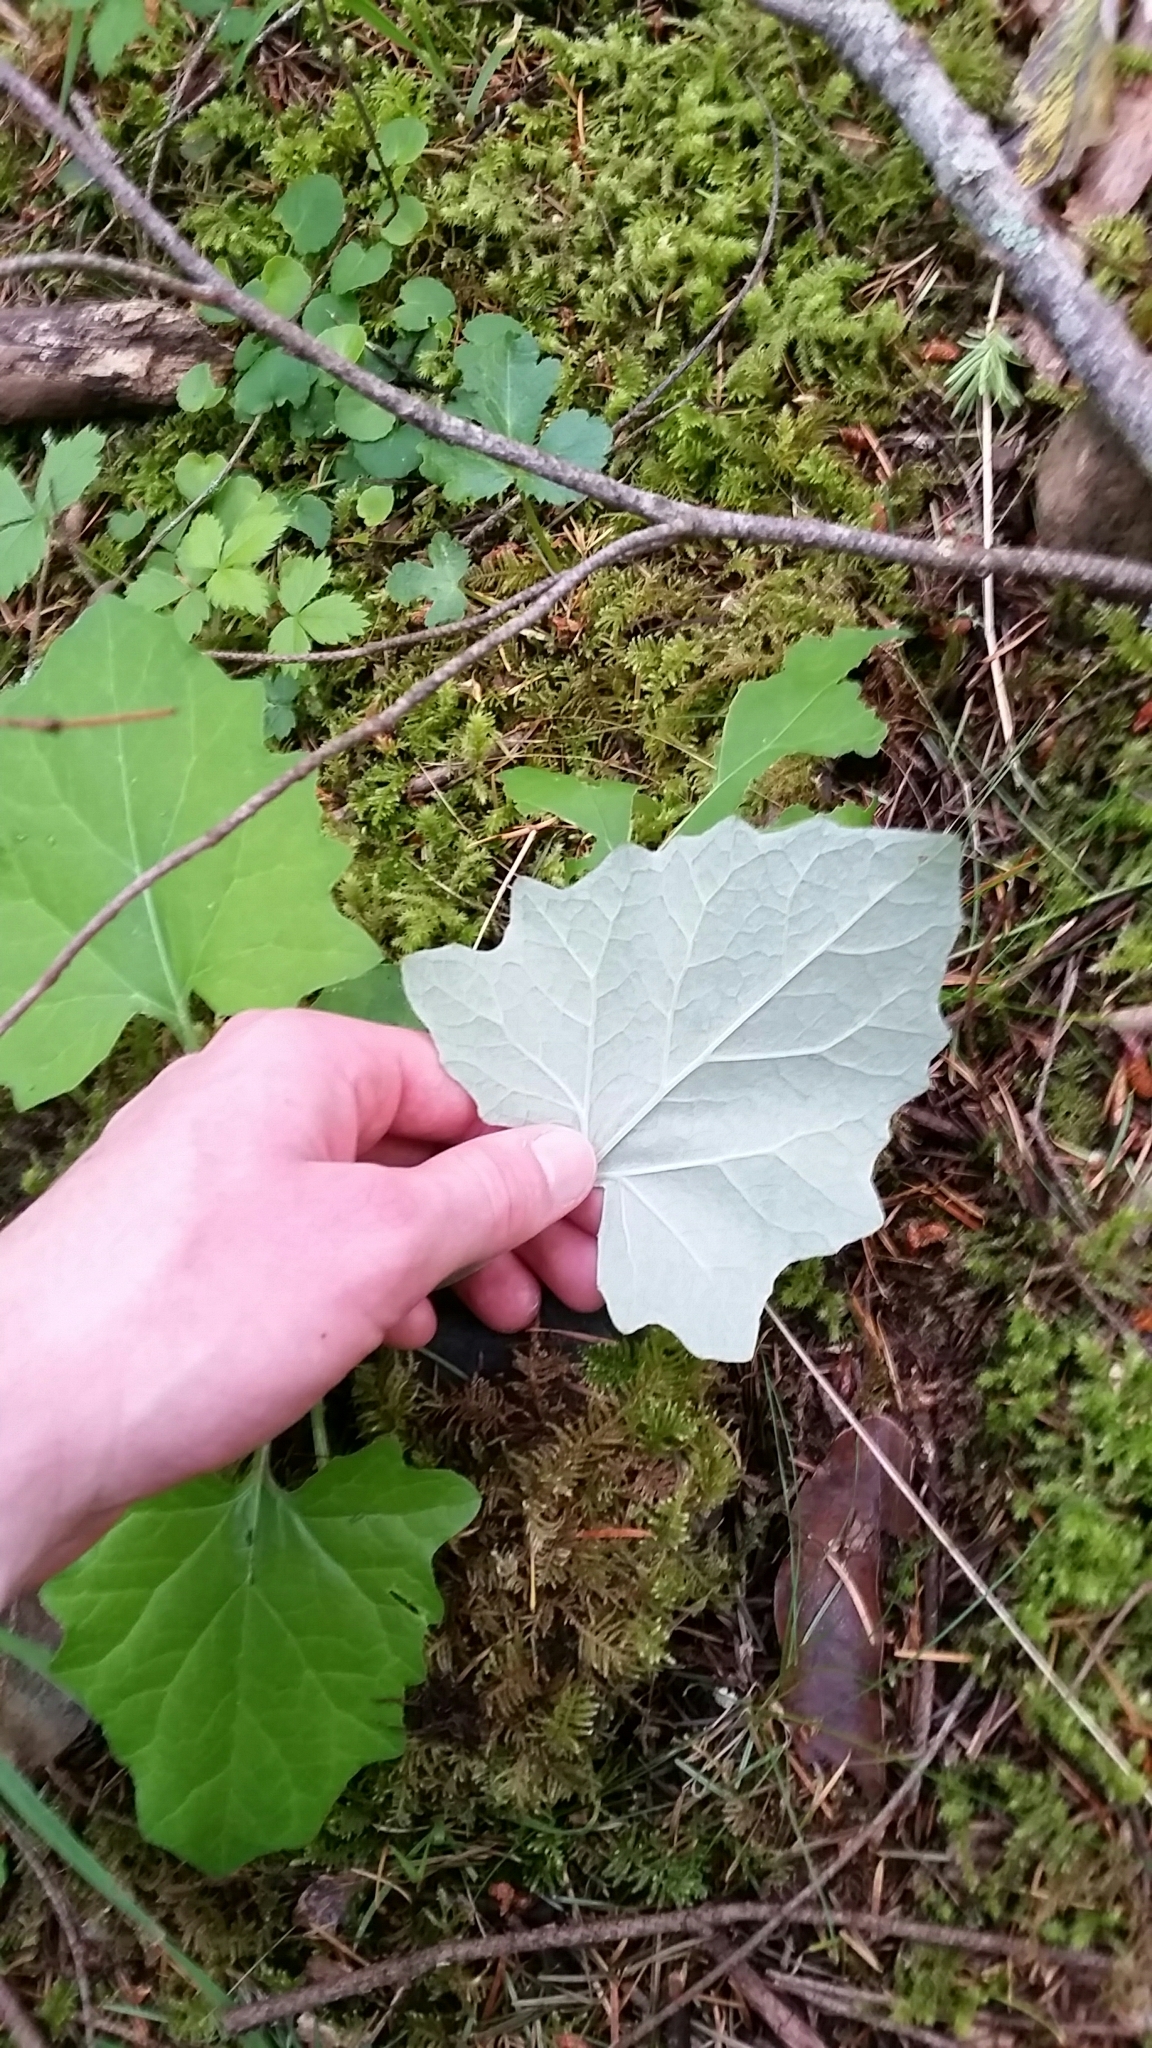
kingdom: Plantae
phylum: Tracheophyta
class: Magnoliopsida
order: Asterales
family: Asteraceae
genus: Adenocaulon
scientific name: Adenocaulon bicolor
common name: Trailplant
